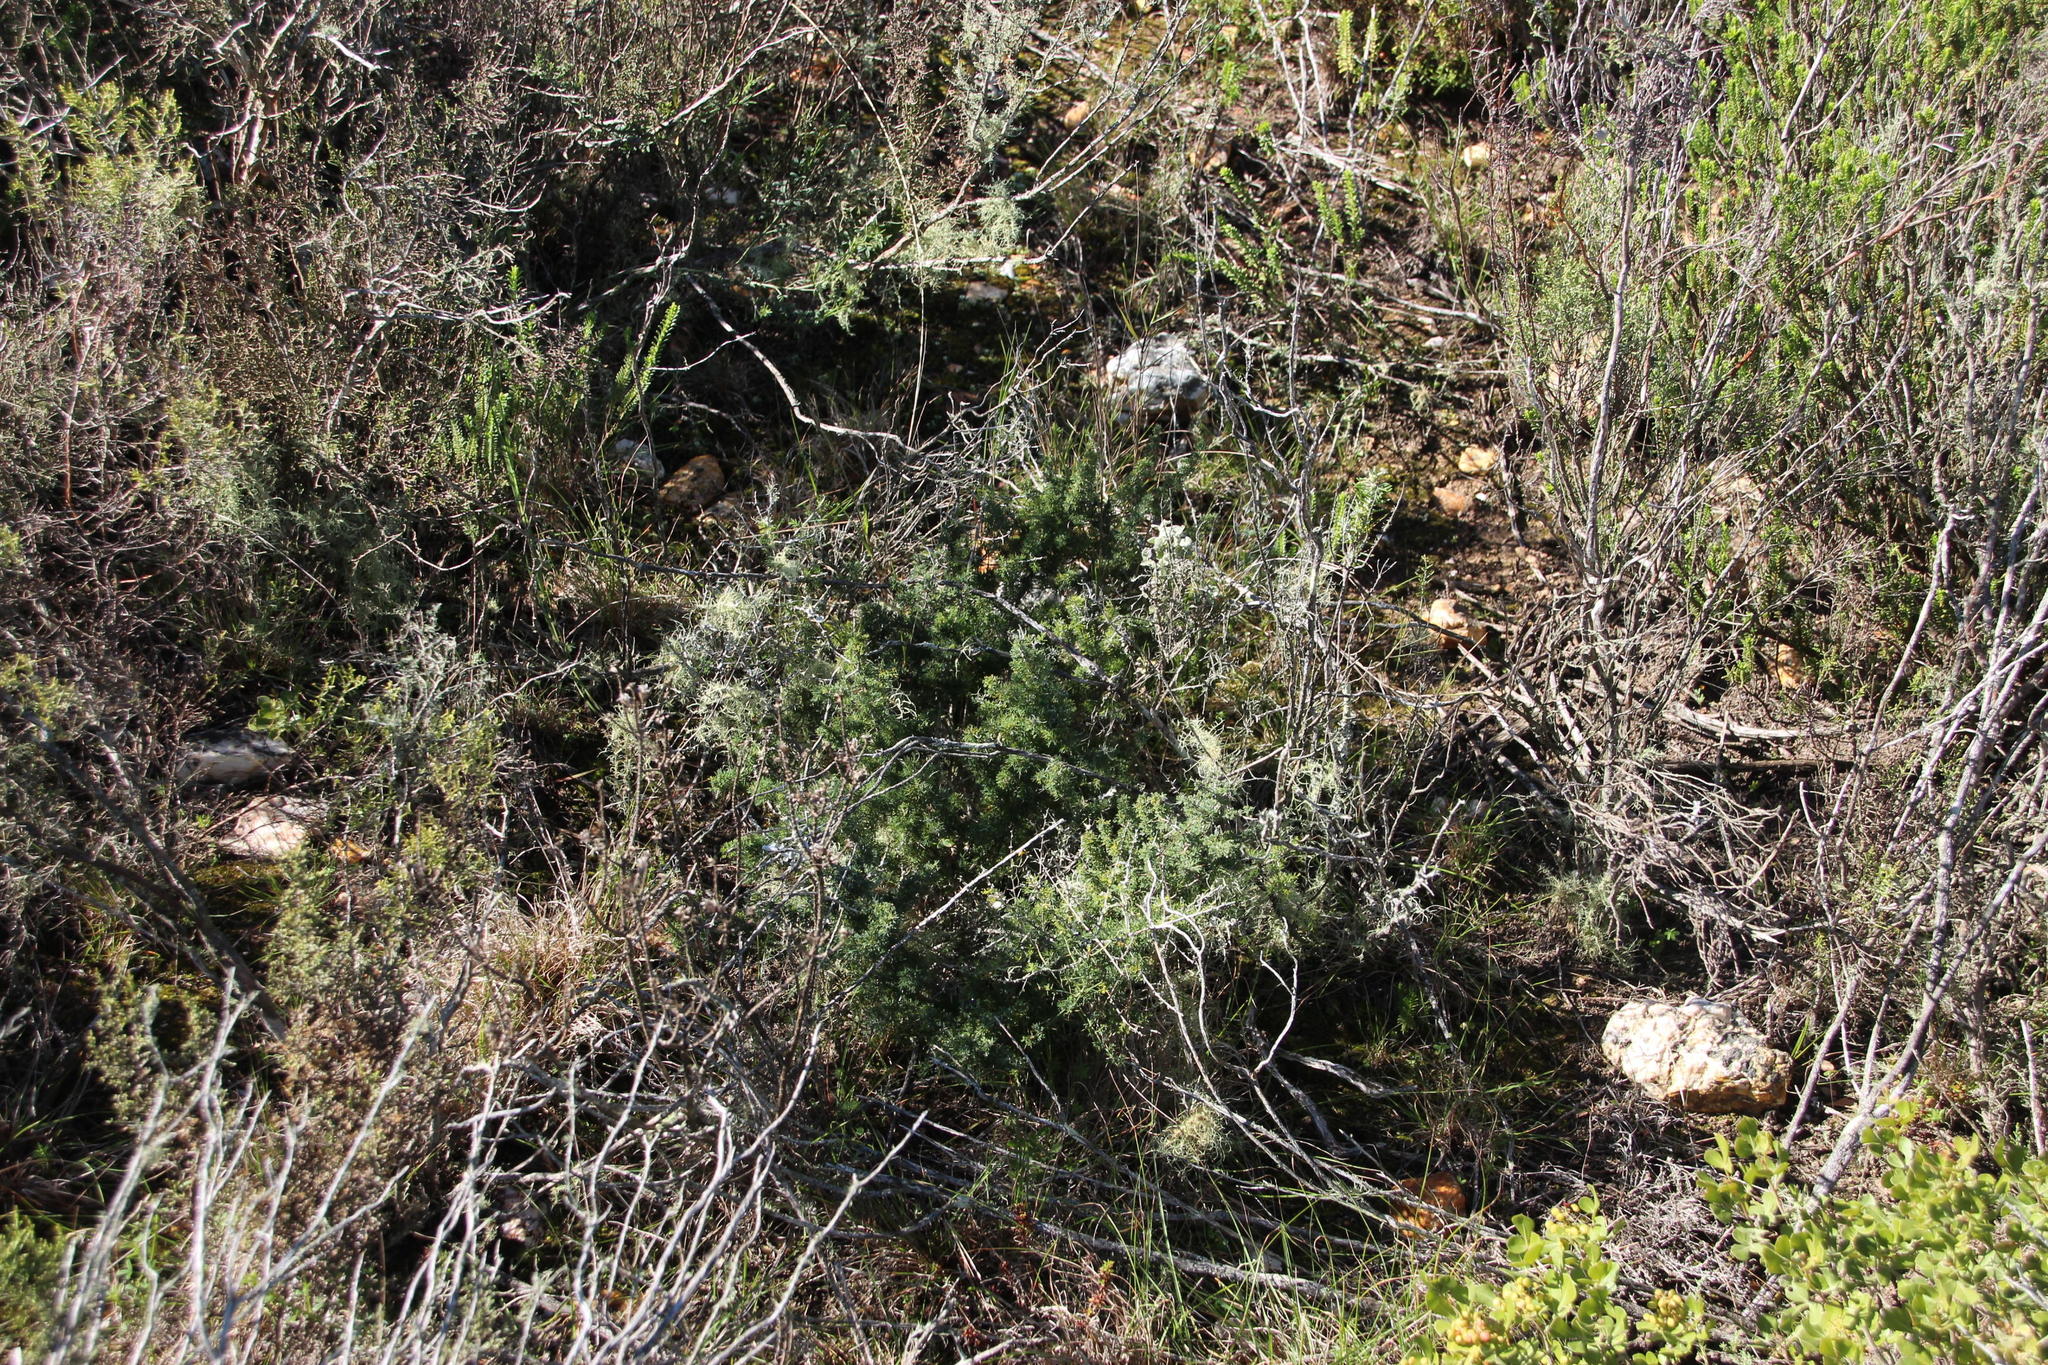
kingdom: Plantae
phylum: Tracheophyta
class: Liliopsida
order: Asparagales
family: Asparagaceae
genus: Asparagus
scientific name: Asparagus capensis
